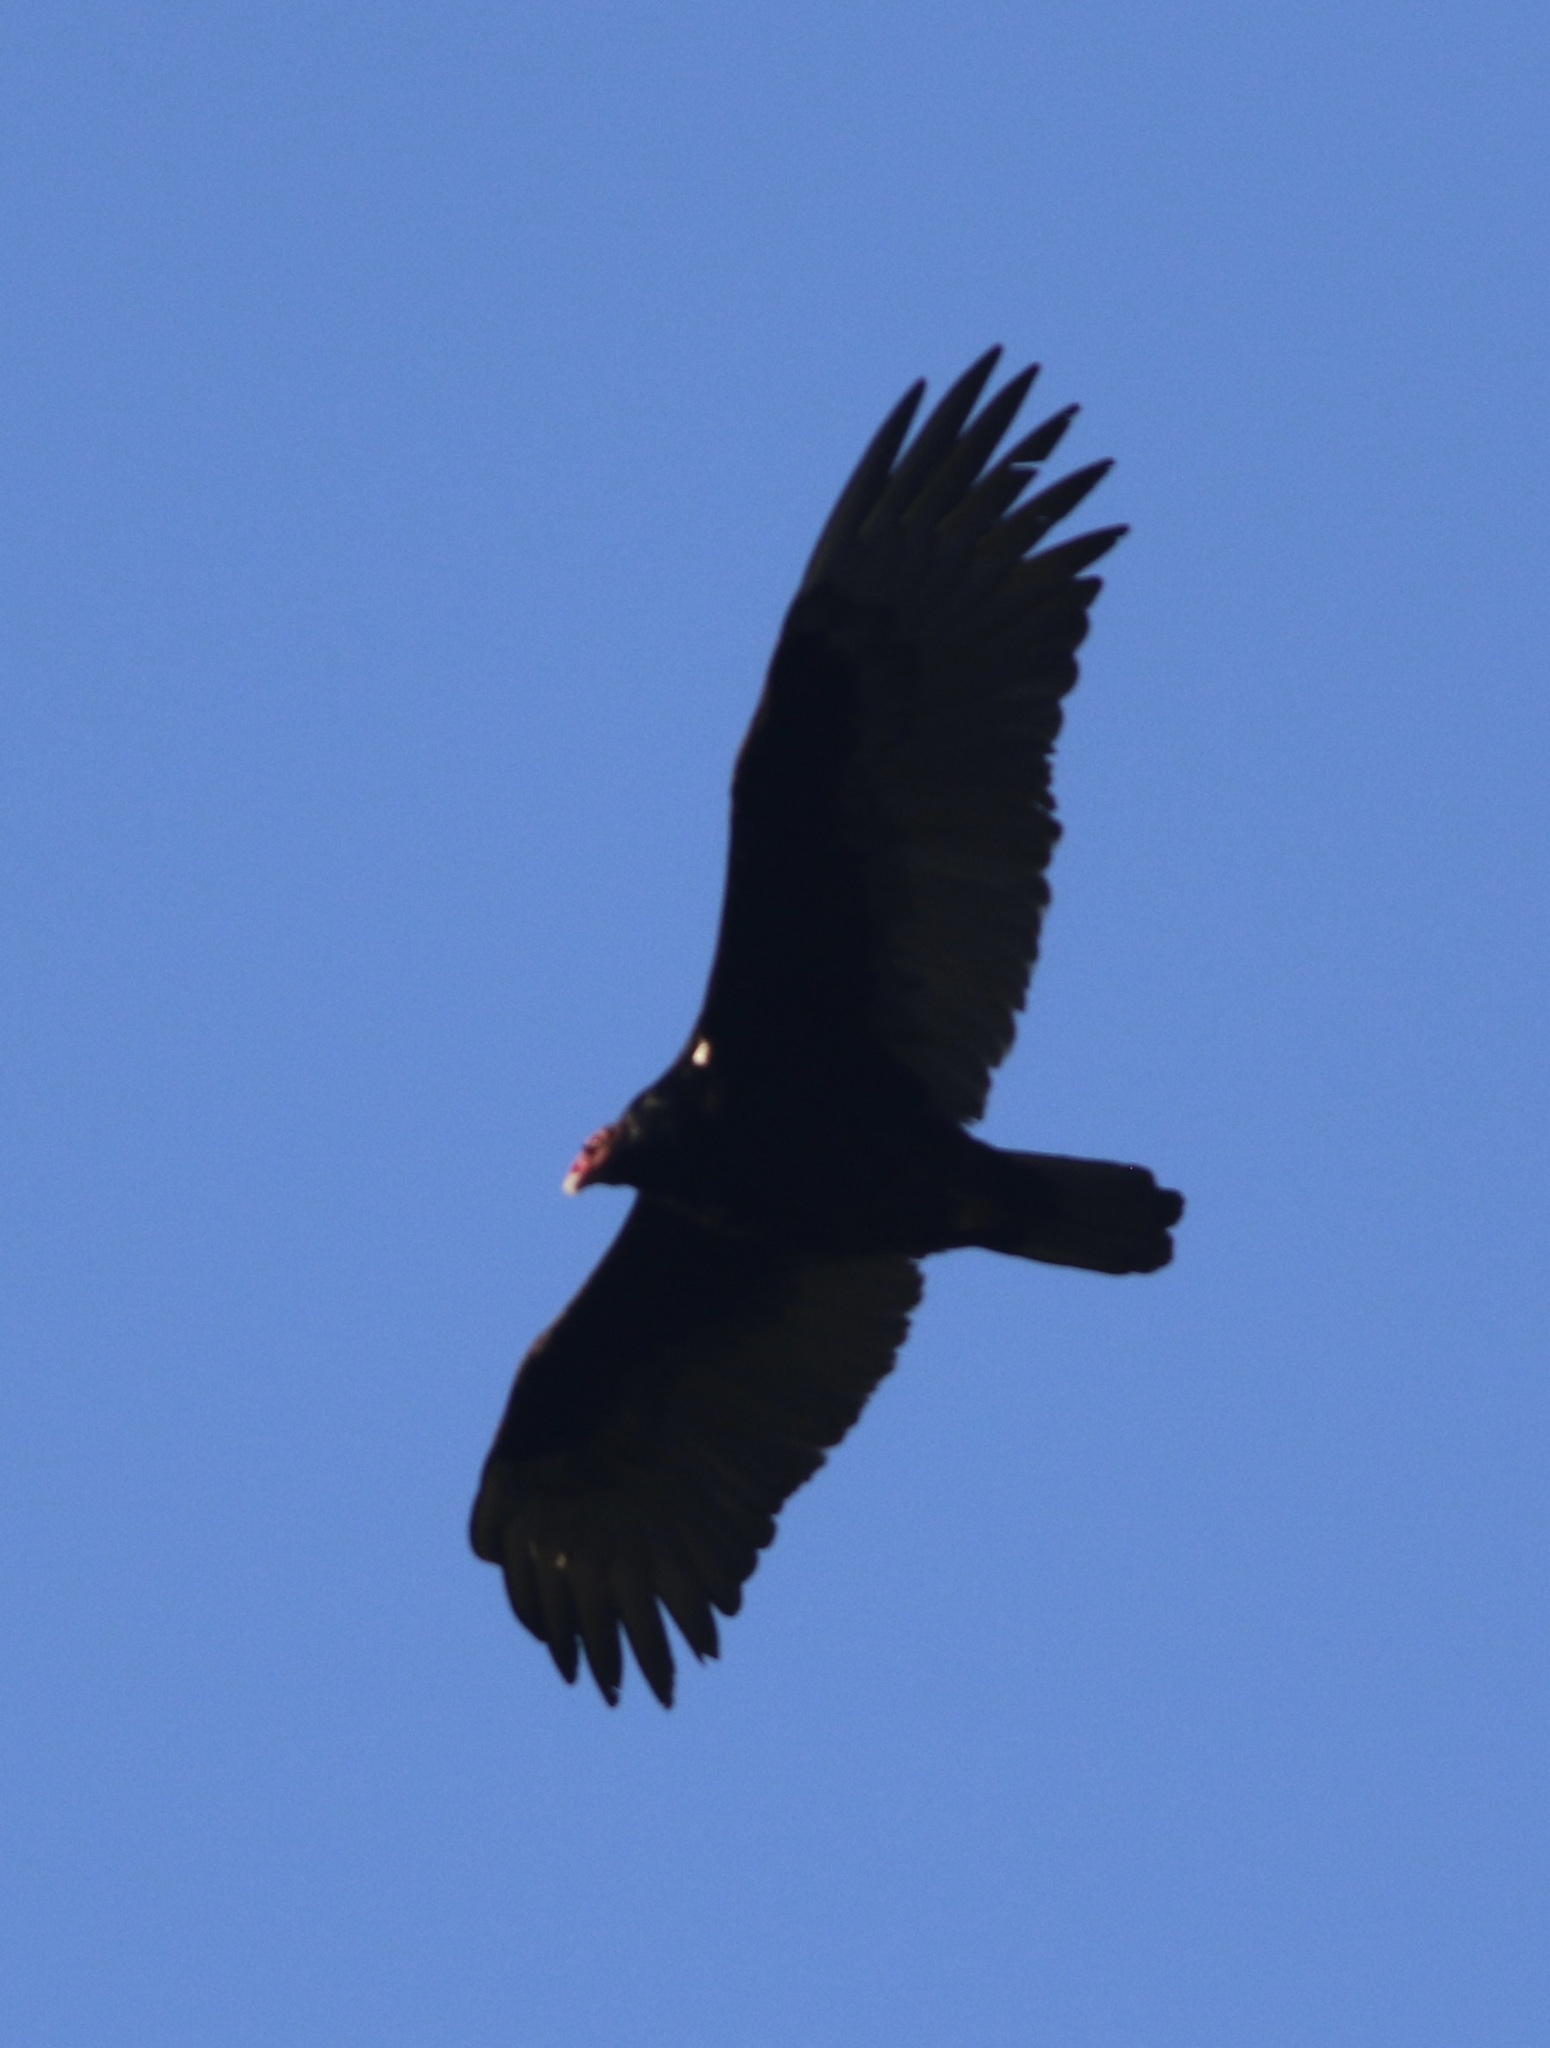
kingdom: Animalia
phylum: Chordata
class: Aves
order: Accipitriformes
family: Cathartidae
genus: Cathartes
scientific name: Cathartes aura
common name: Turkey vulture
